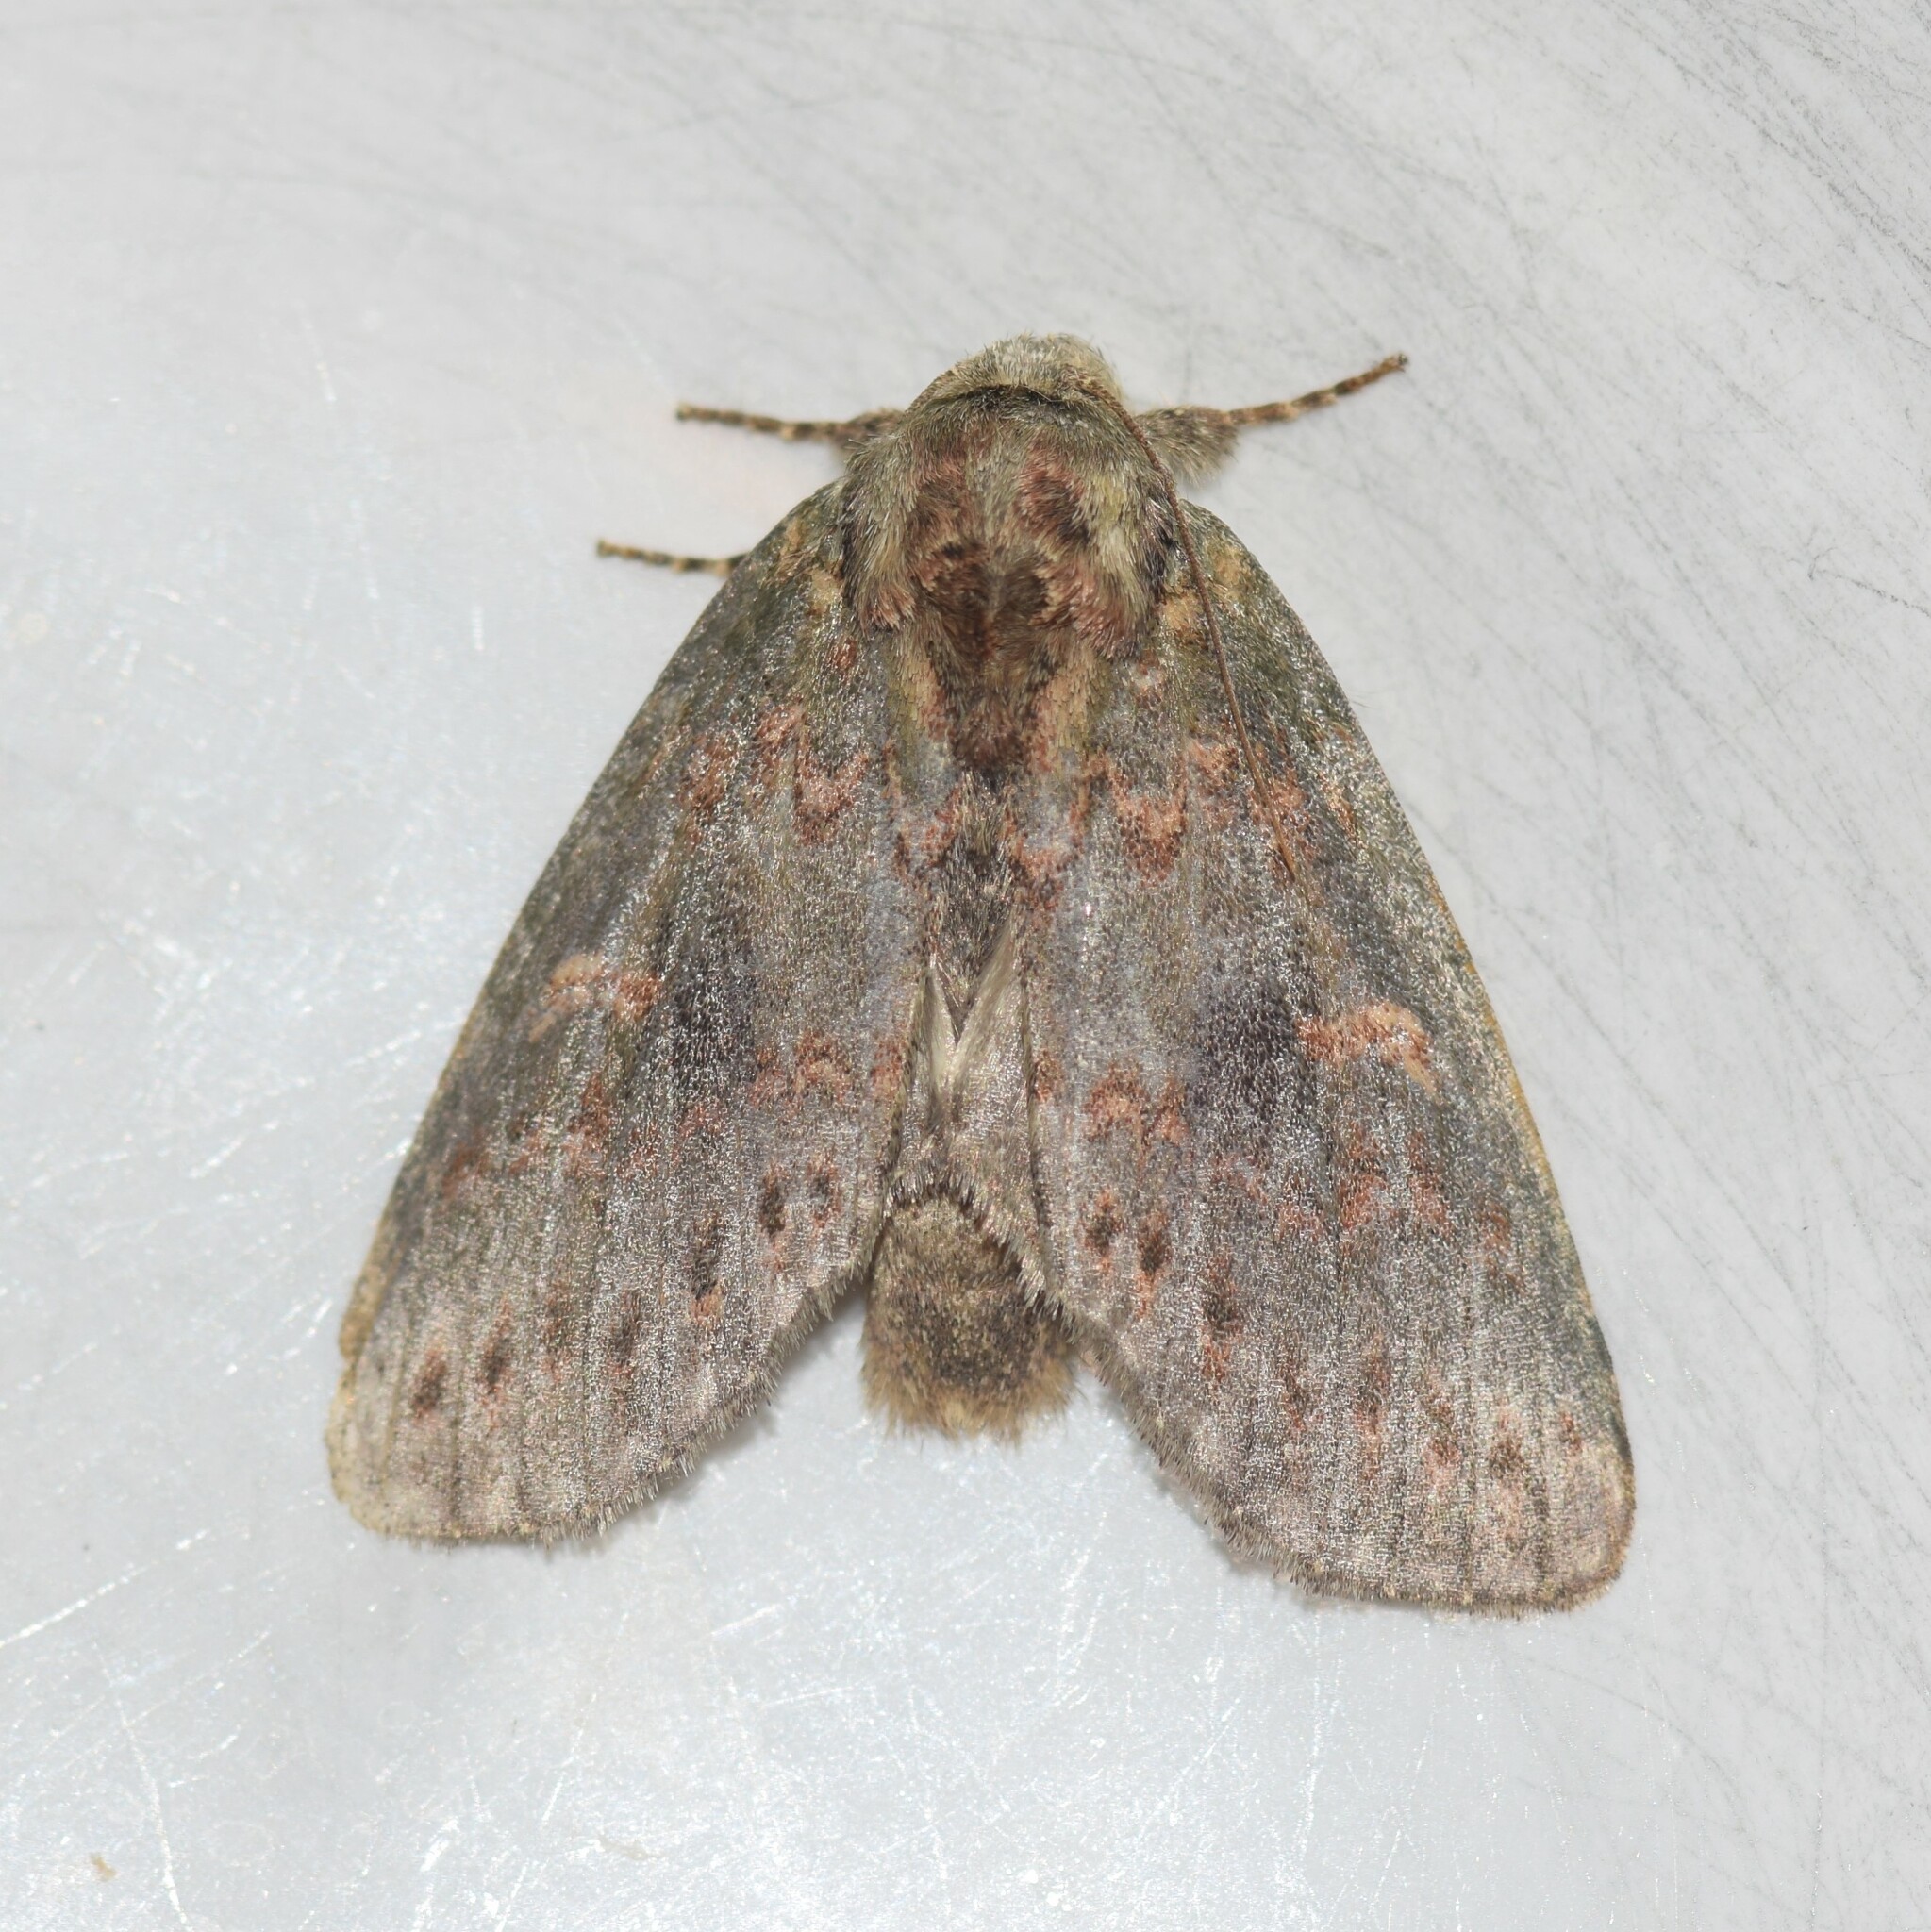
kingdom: Animalia
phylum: Arthropoda
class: Insecta
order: Lepidoptera
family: Notodontidae
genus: Disphragis
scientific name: Disphragis Cecrita biundata
